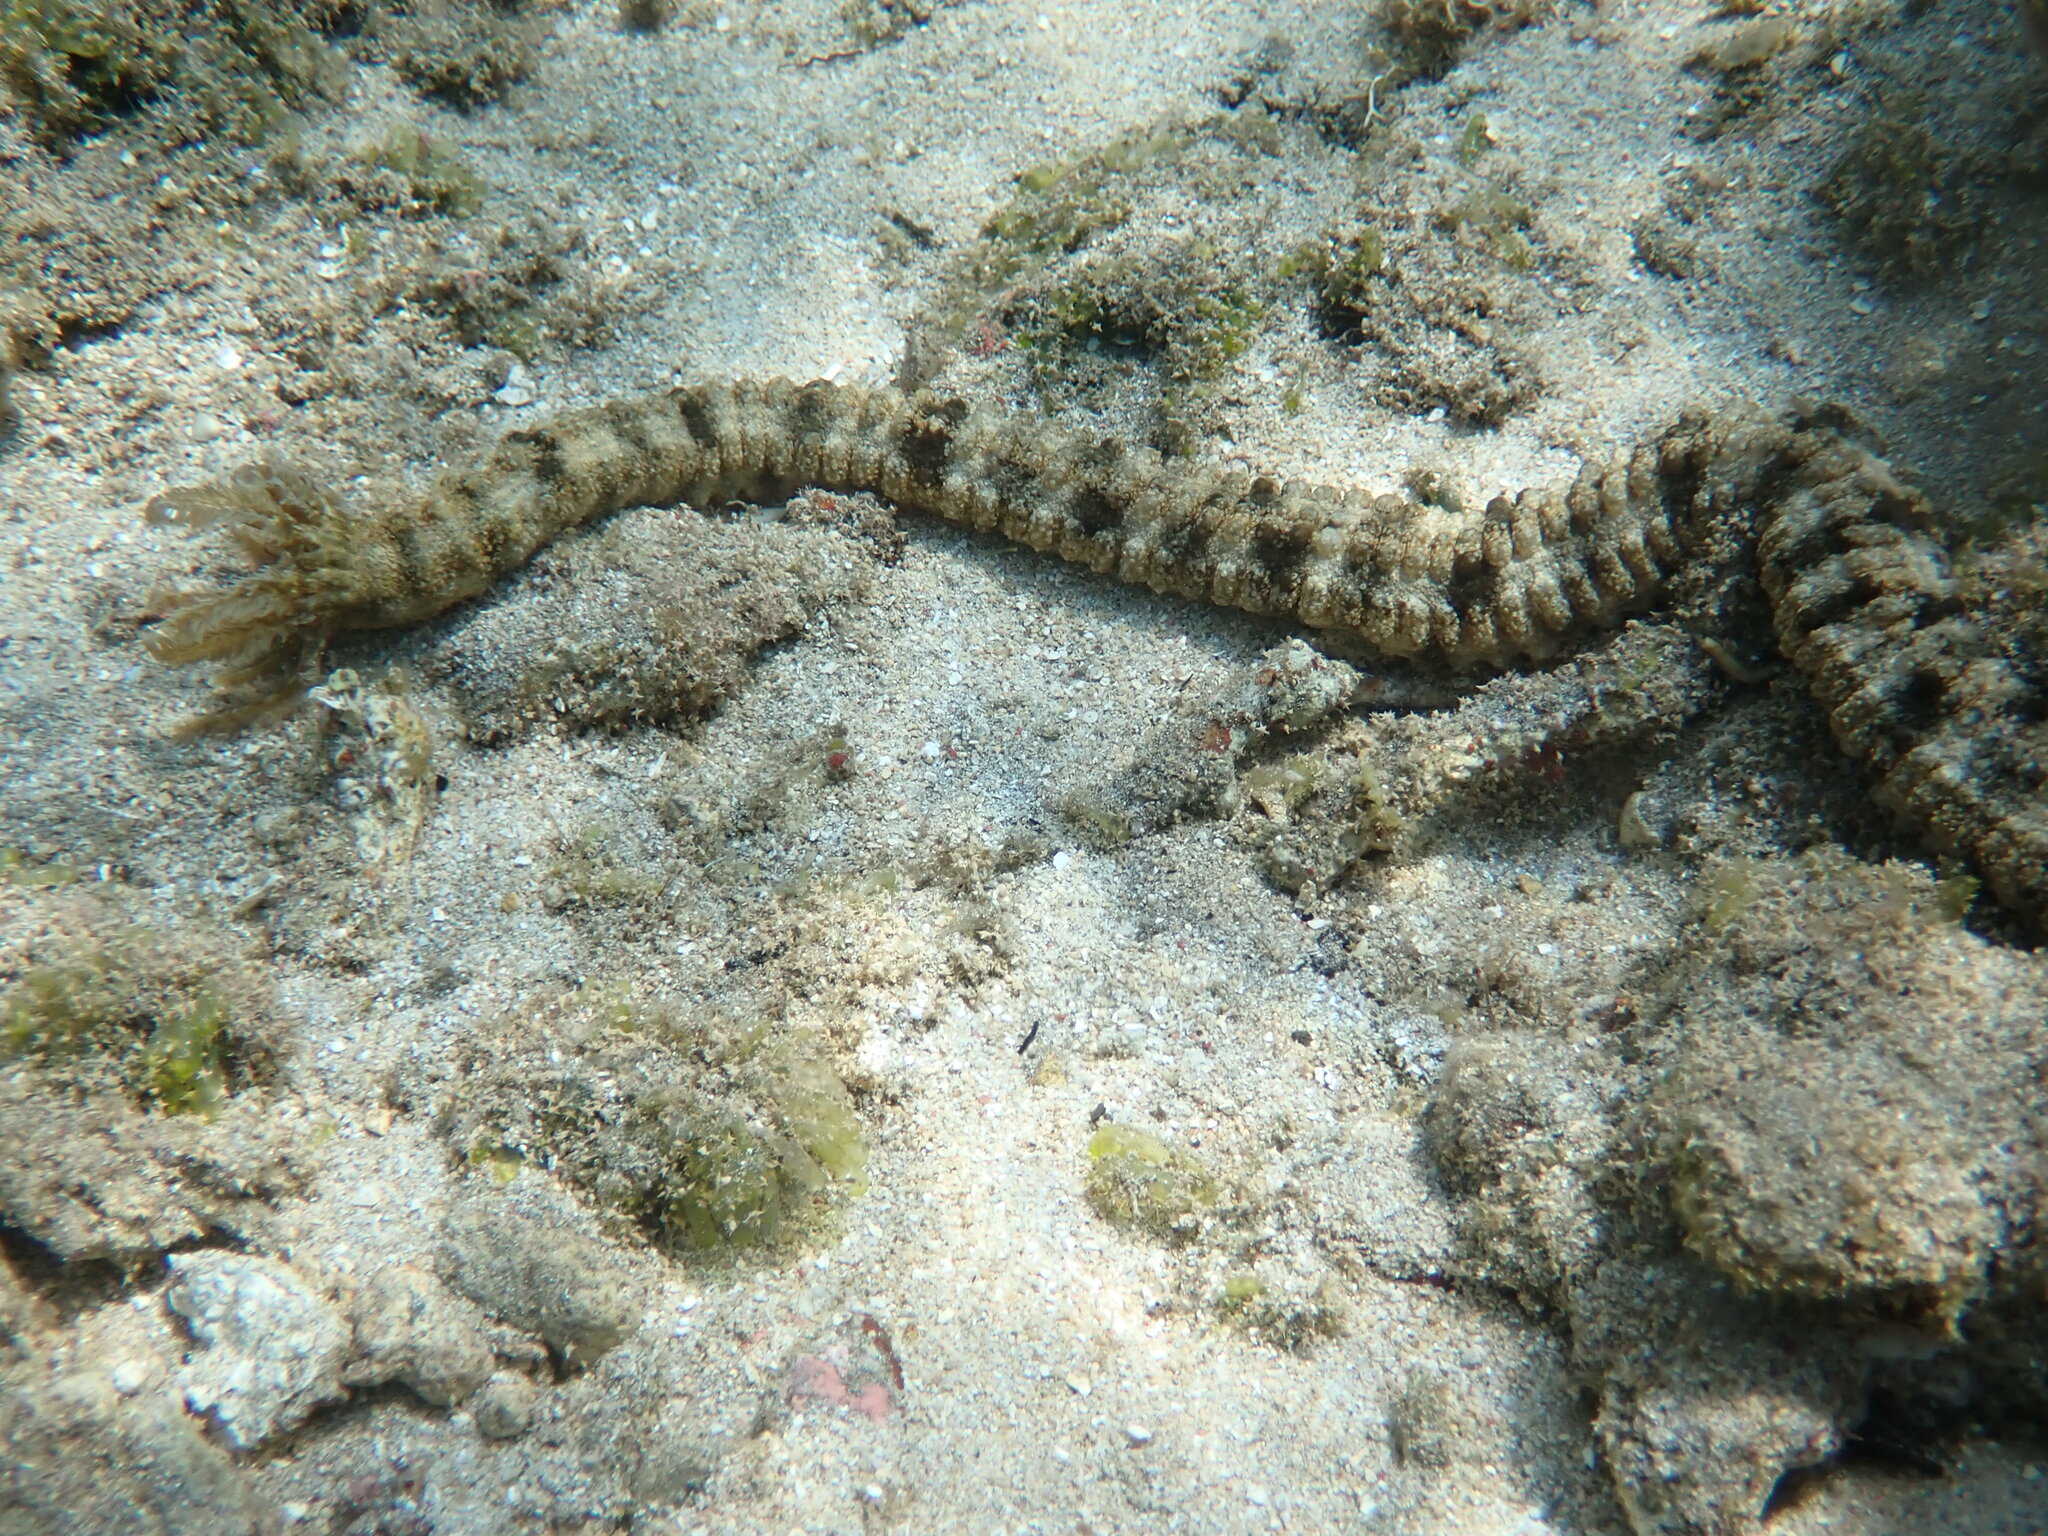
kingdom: Animalia
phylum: Echinodermata
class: Holothuroidea
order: Apodida
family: Synaptidae
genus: Synapta
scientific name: Synapta maculata
